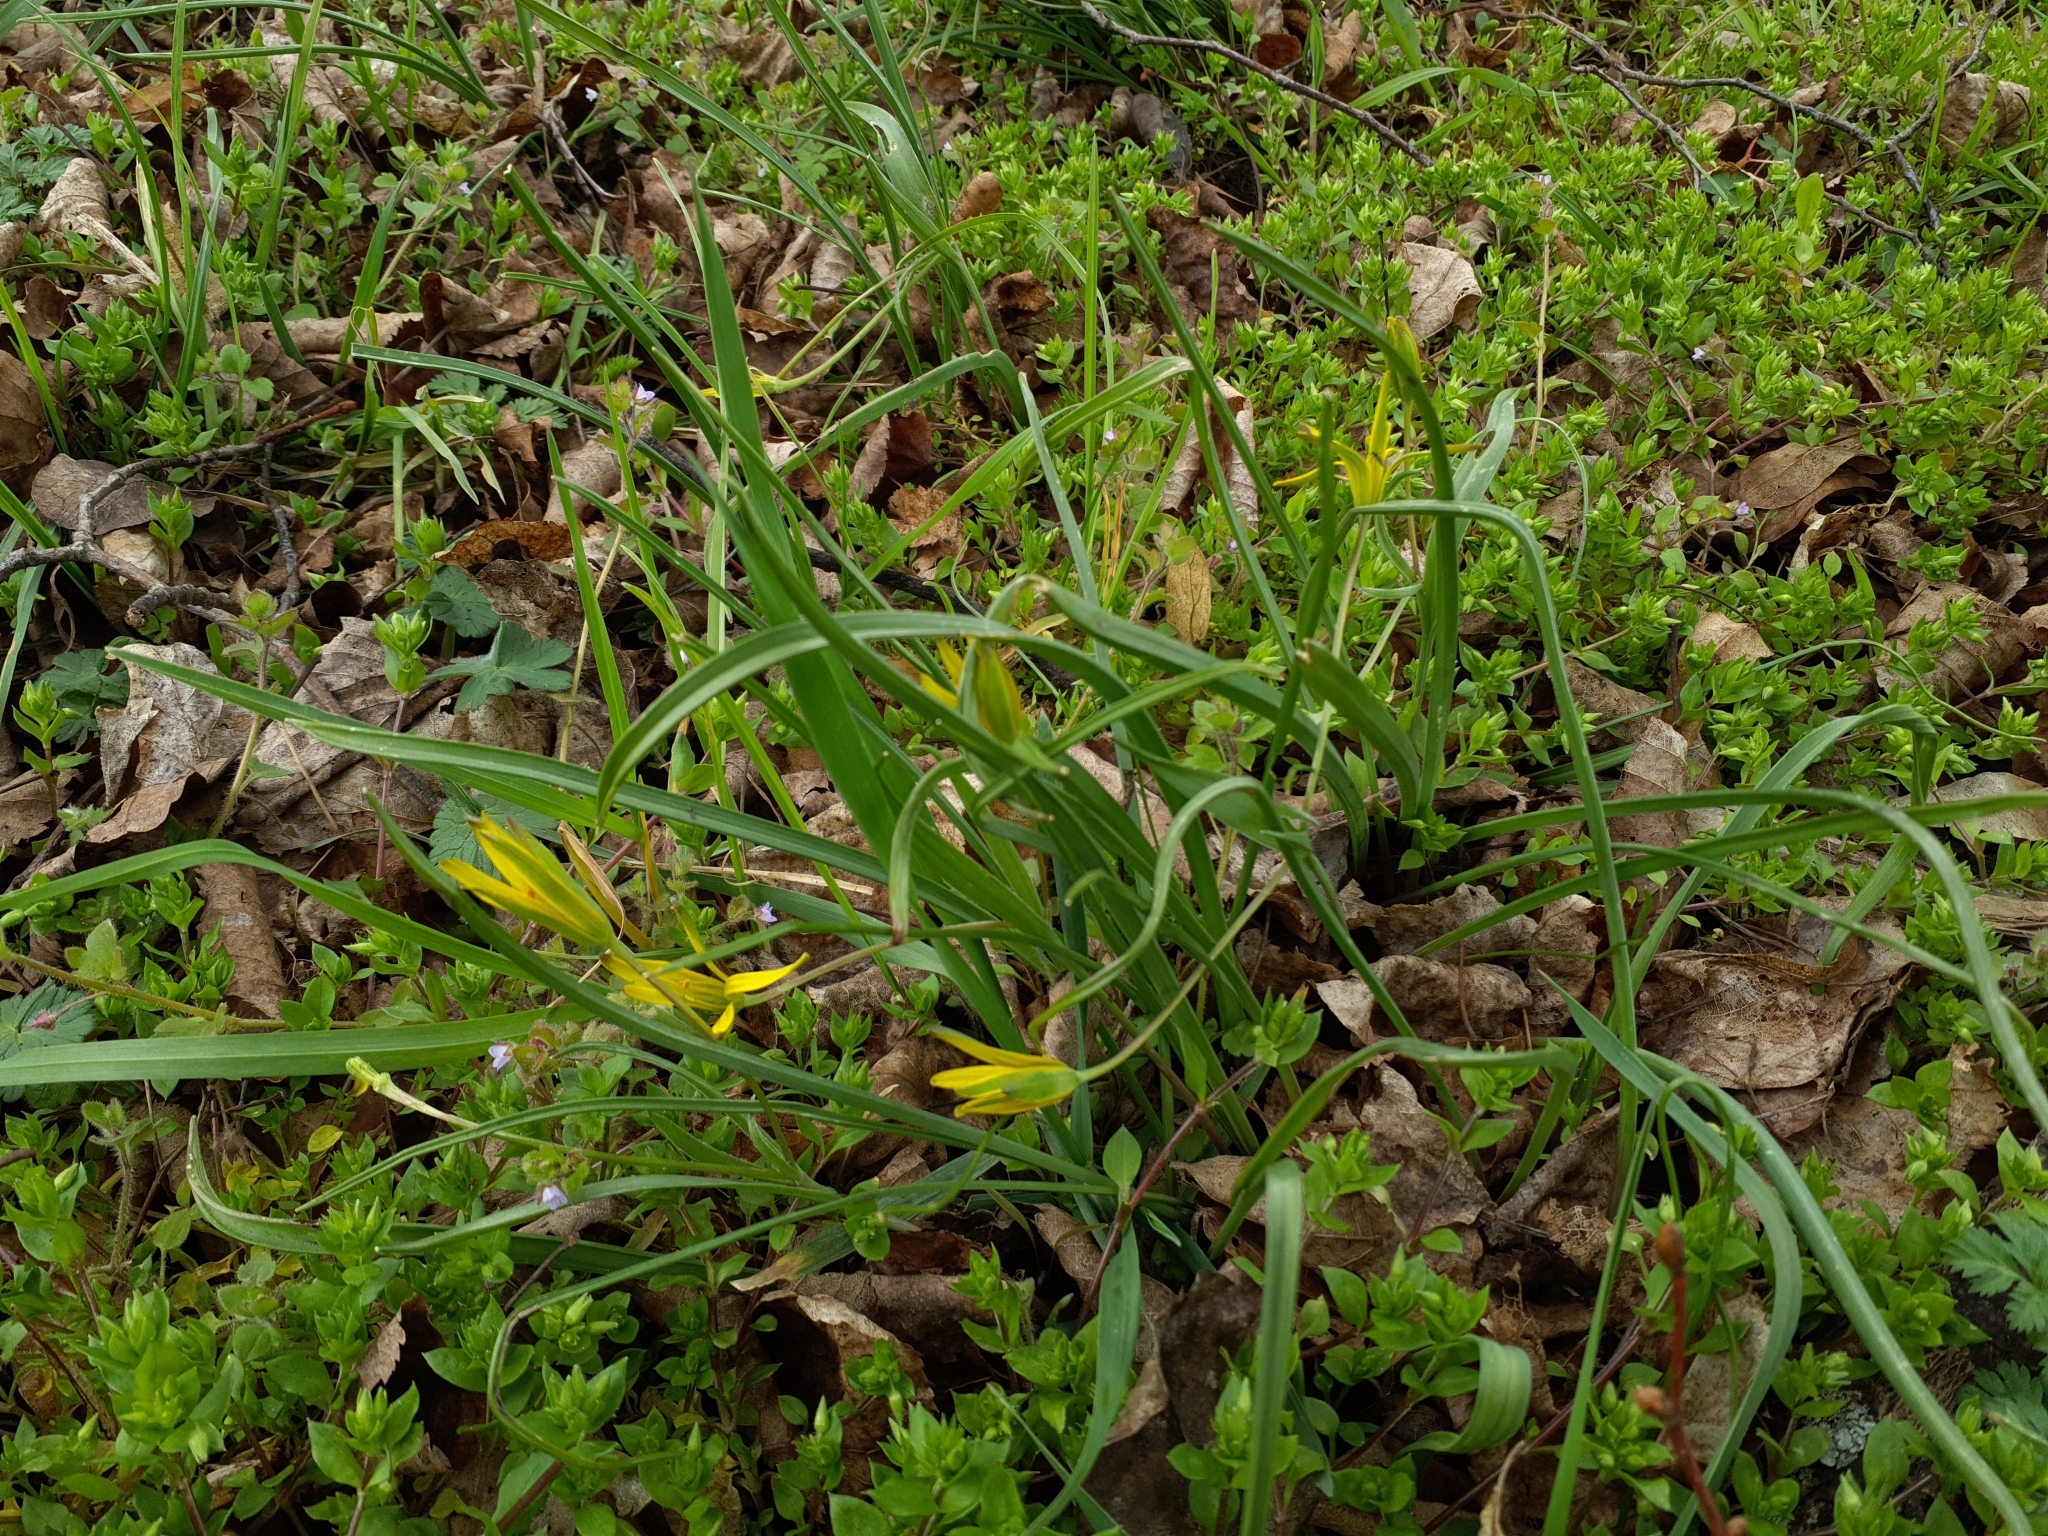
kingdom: Plantae
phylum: Tracheophyta
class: Liliopsida
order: Liliales
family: Liliaceae
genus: Gagea
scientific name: Gagea pratensis
